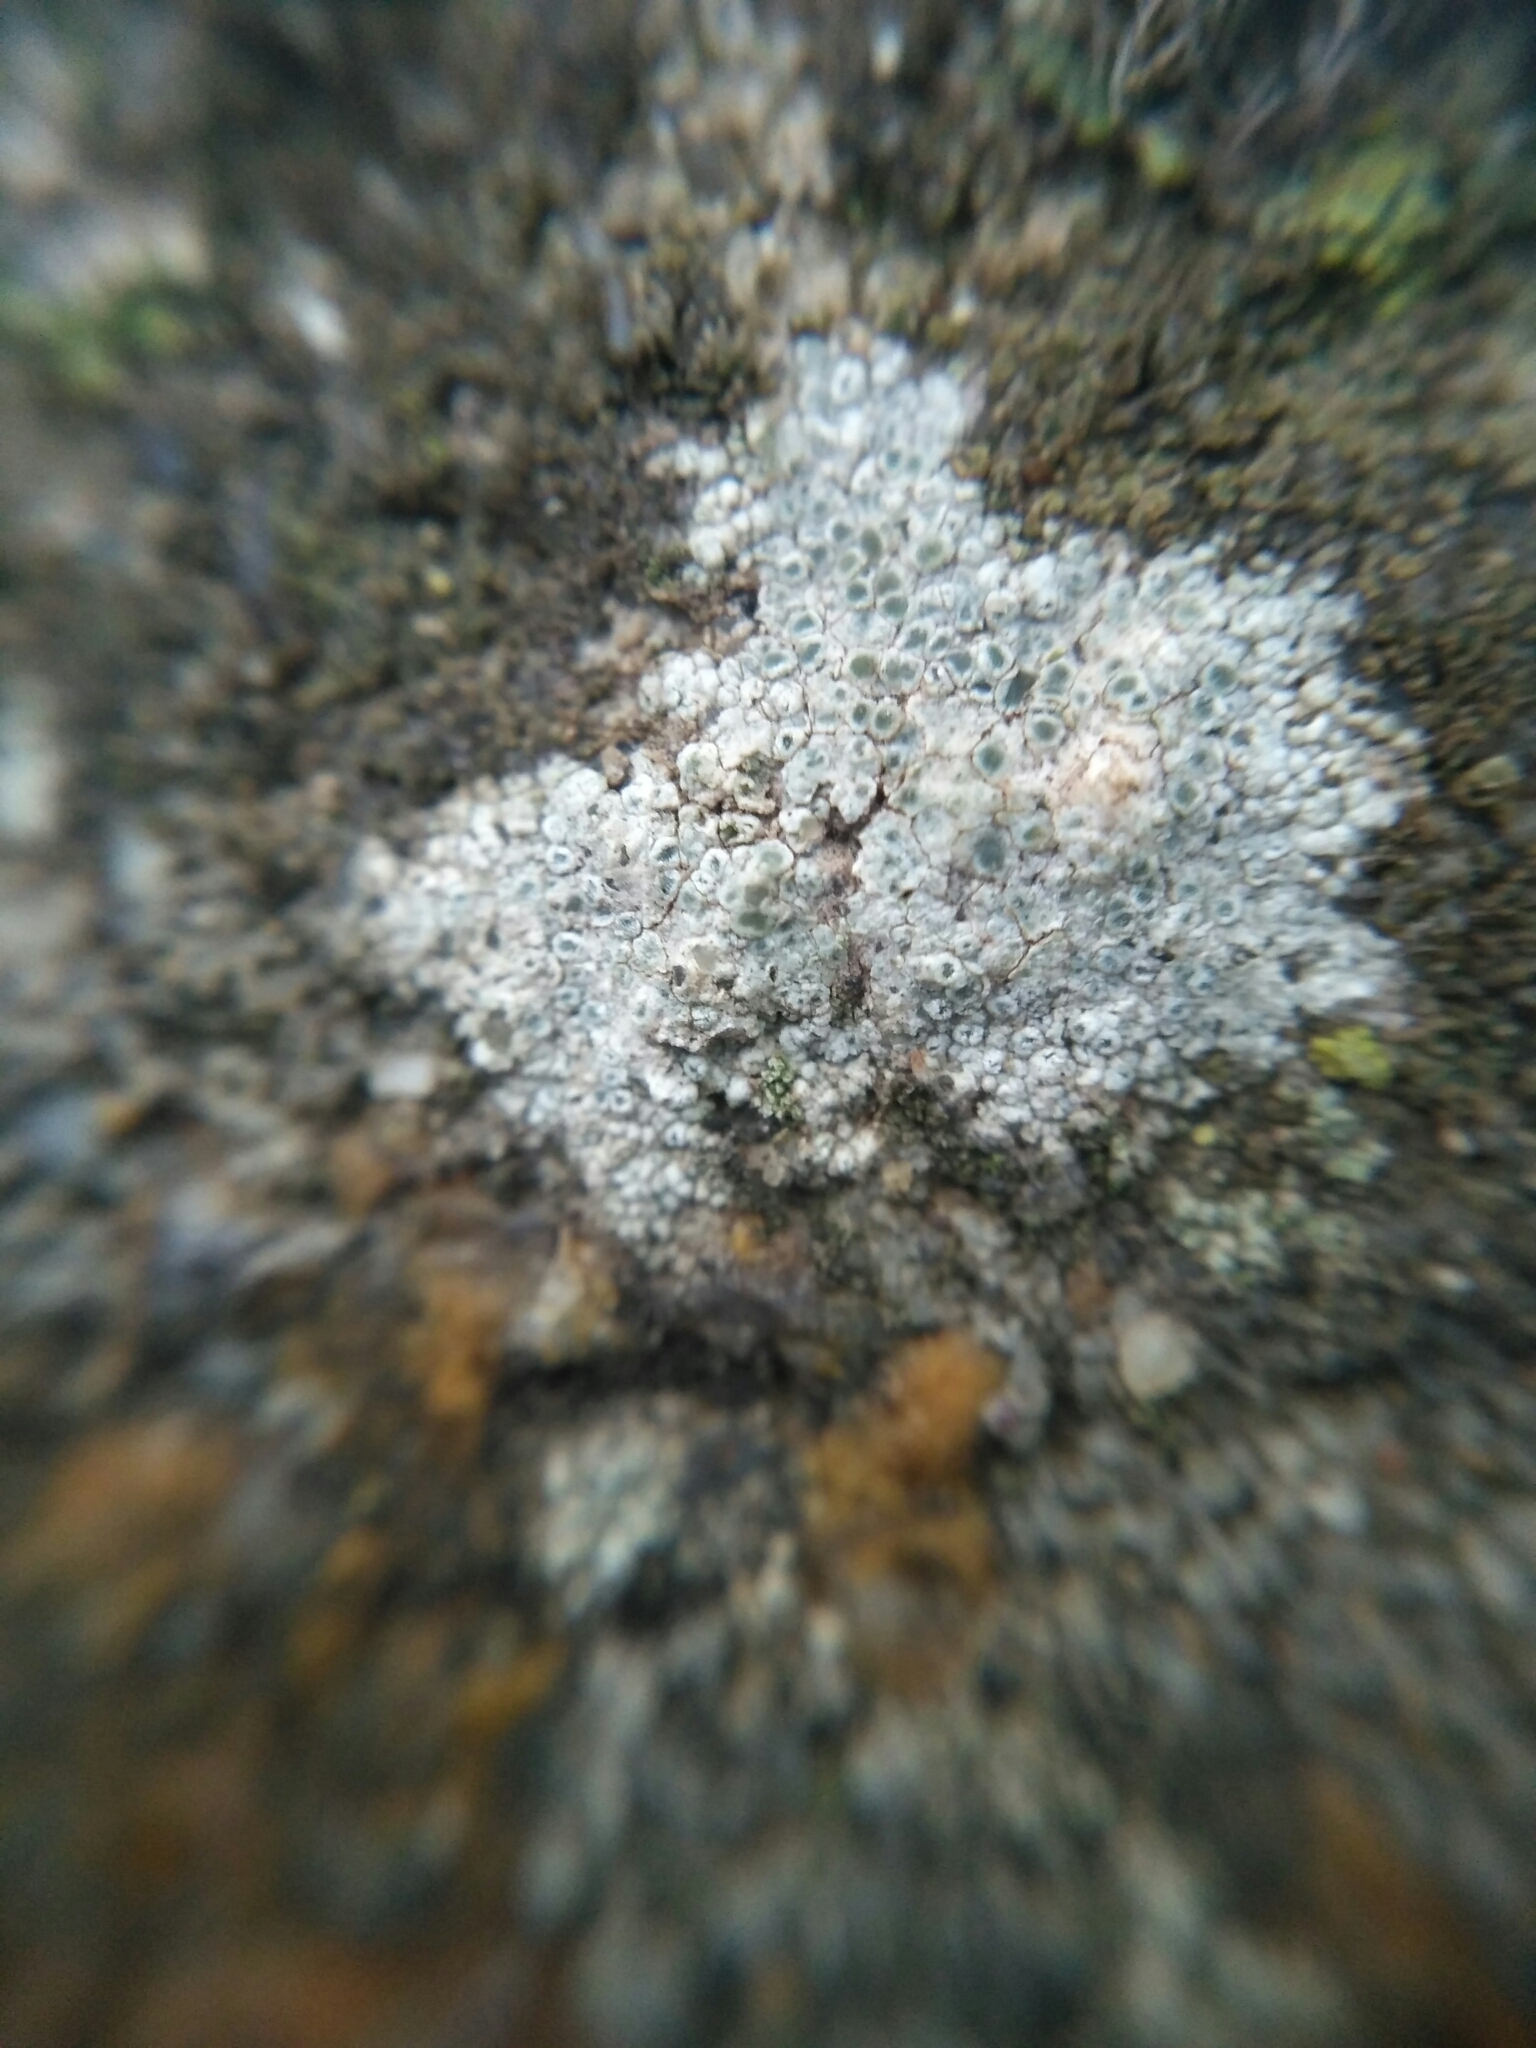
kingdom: Fungi
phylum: Ascomycota
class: Lecanoromycetes
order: Lecanorales
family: Lecanoraceae
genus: Polyozosia
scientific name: Polyozosia albescens
